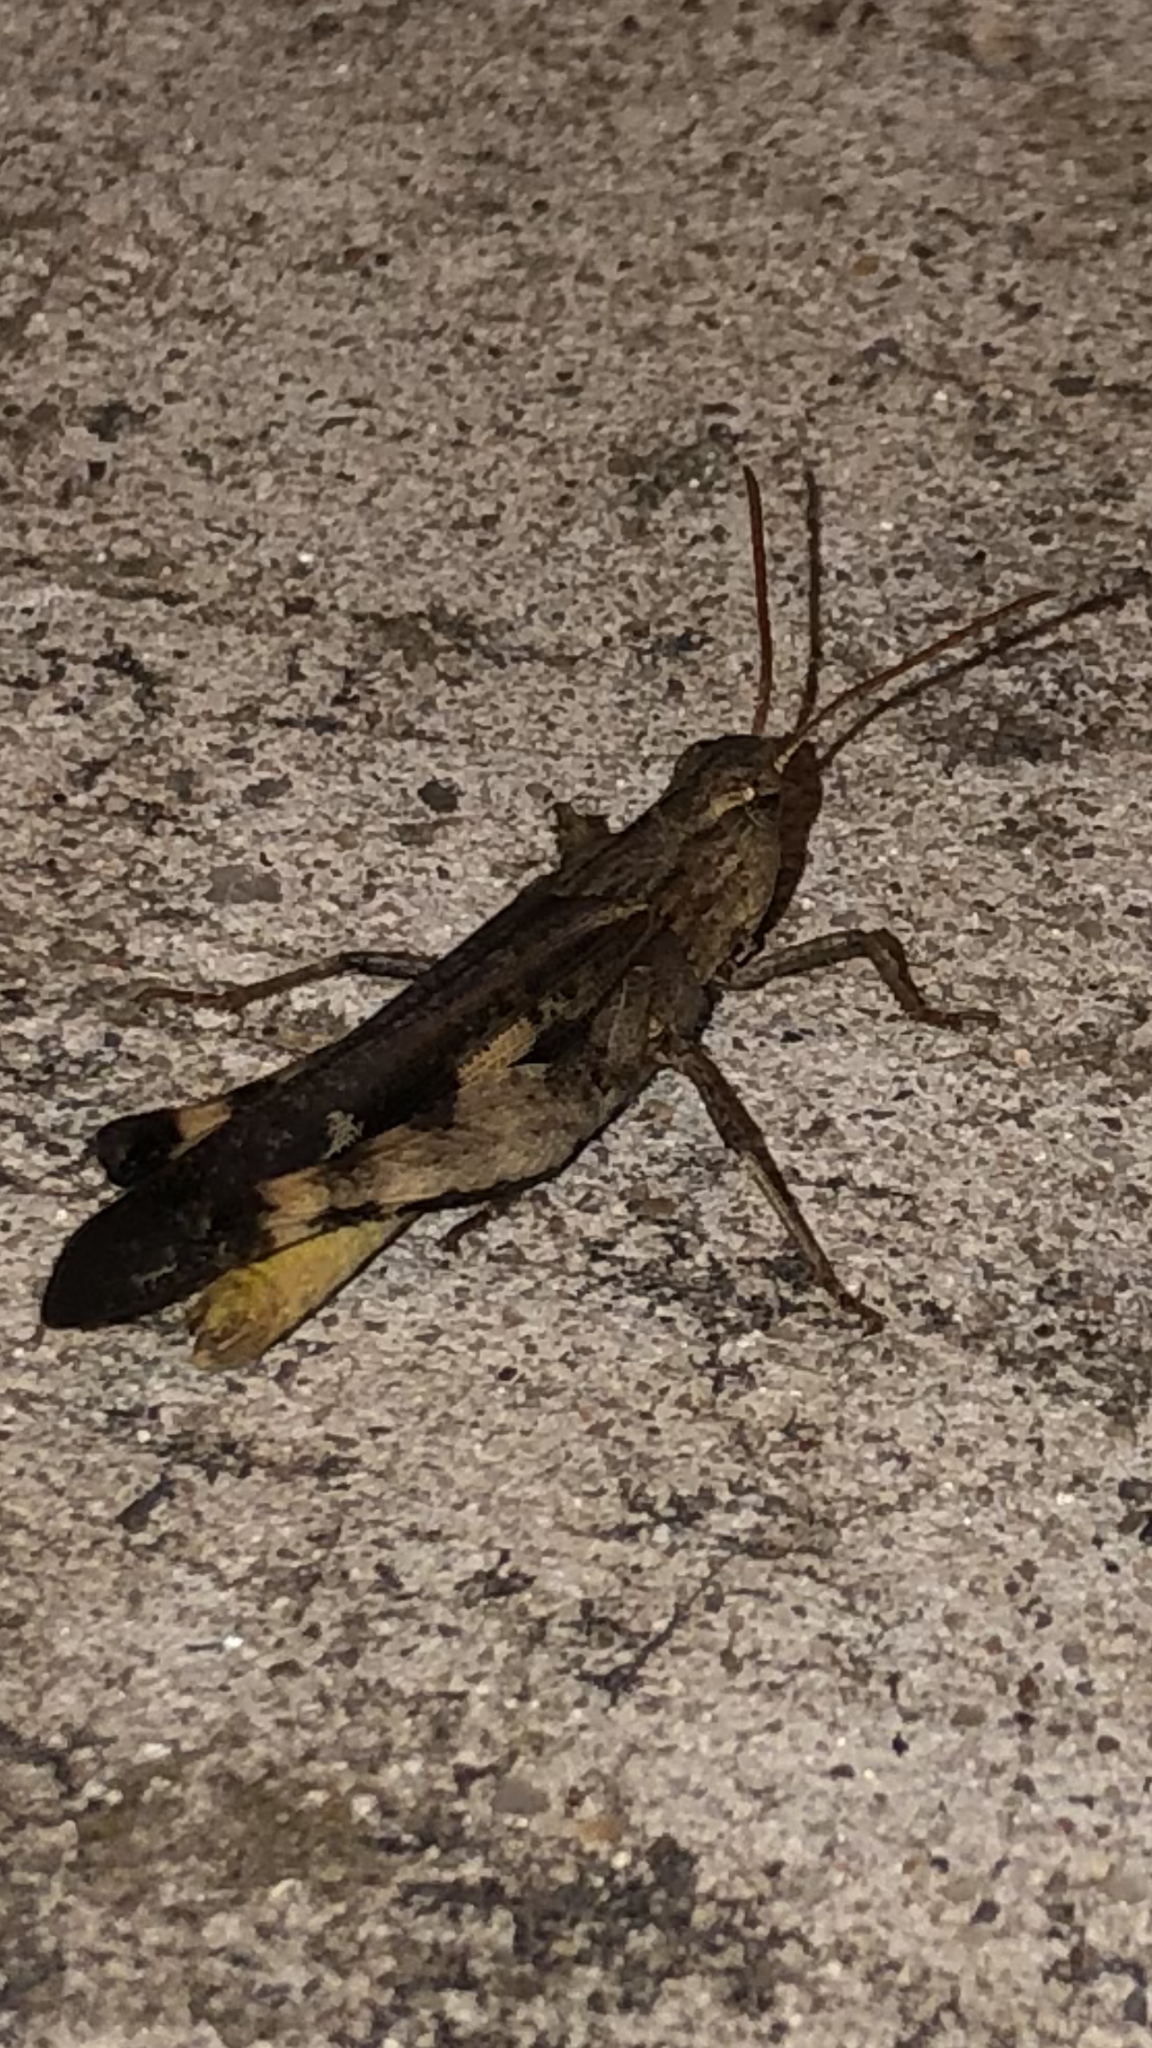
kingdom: Animalia
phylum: Arthropoda
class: Insecta
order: Orthoptera
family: Acrididae
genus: Chortophaga
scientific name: Chortophaga viridifasciata
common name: Green-striped grasshopper
